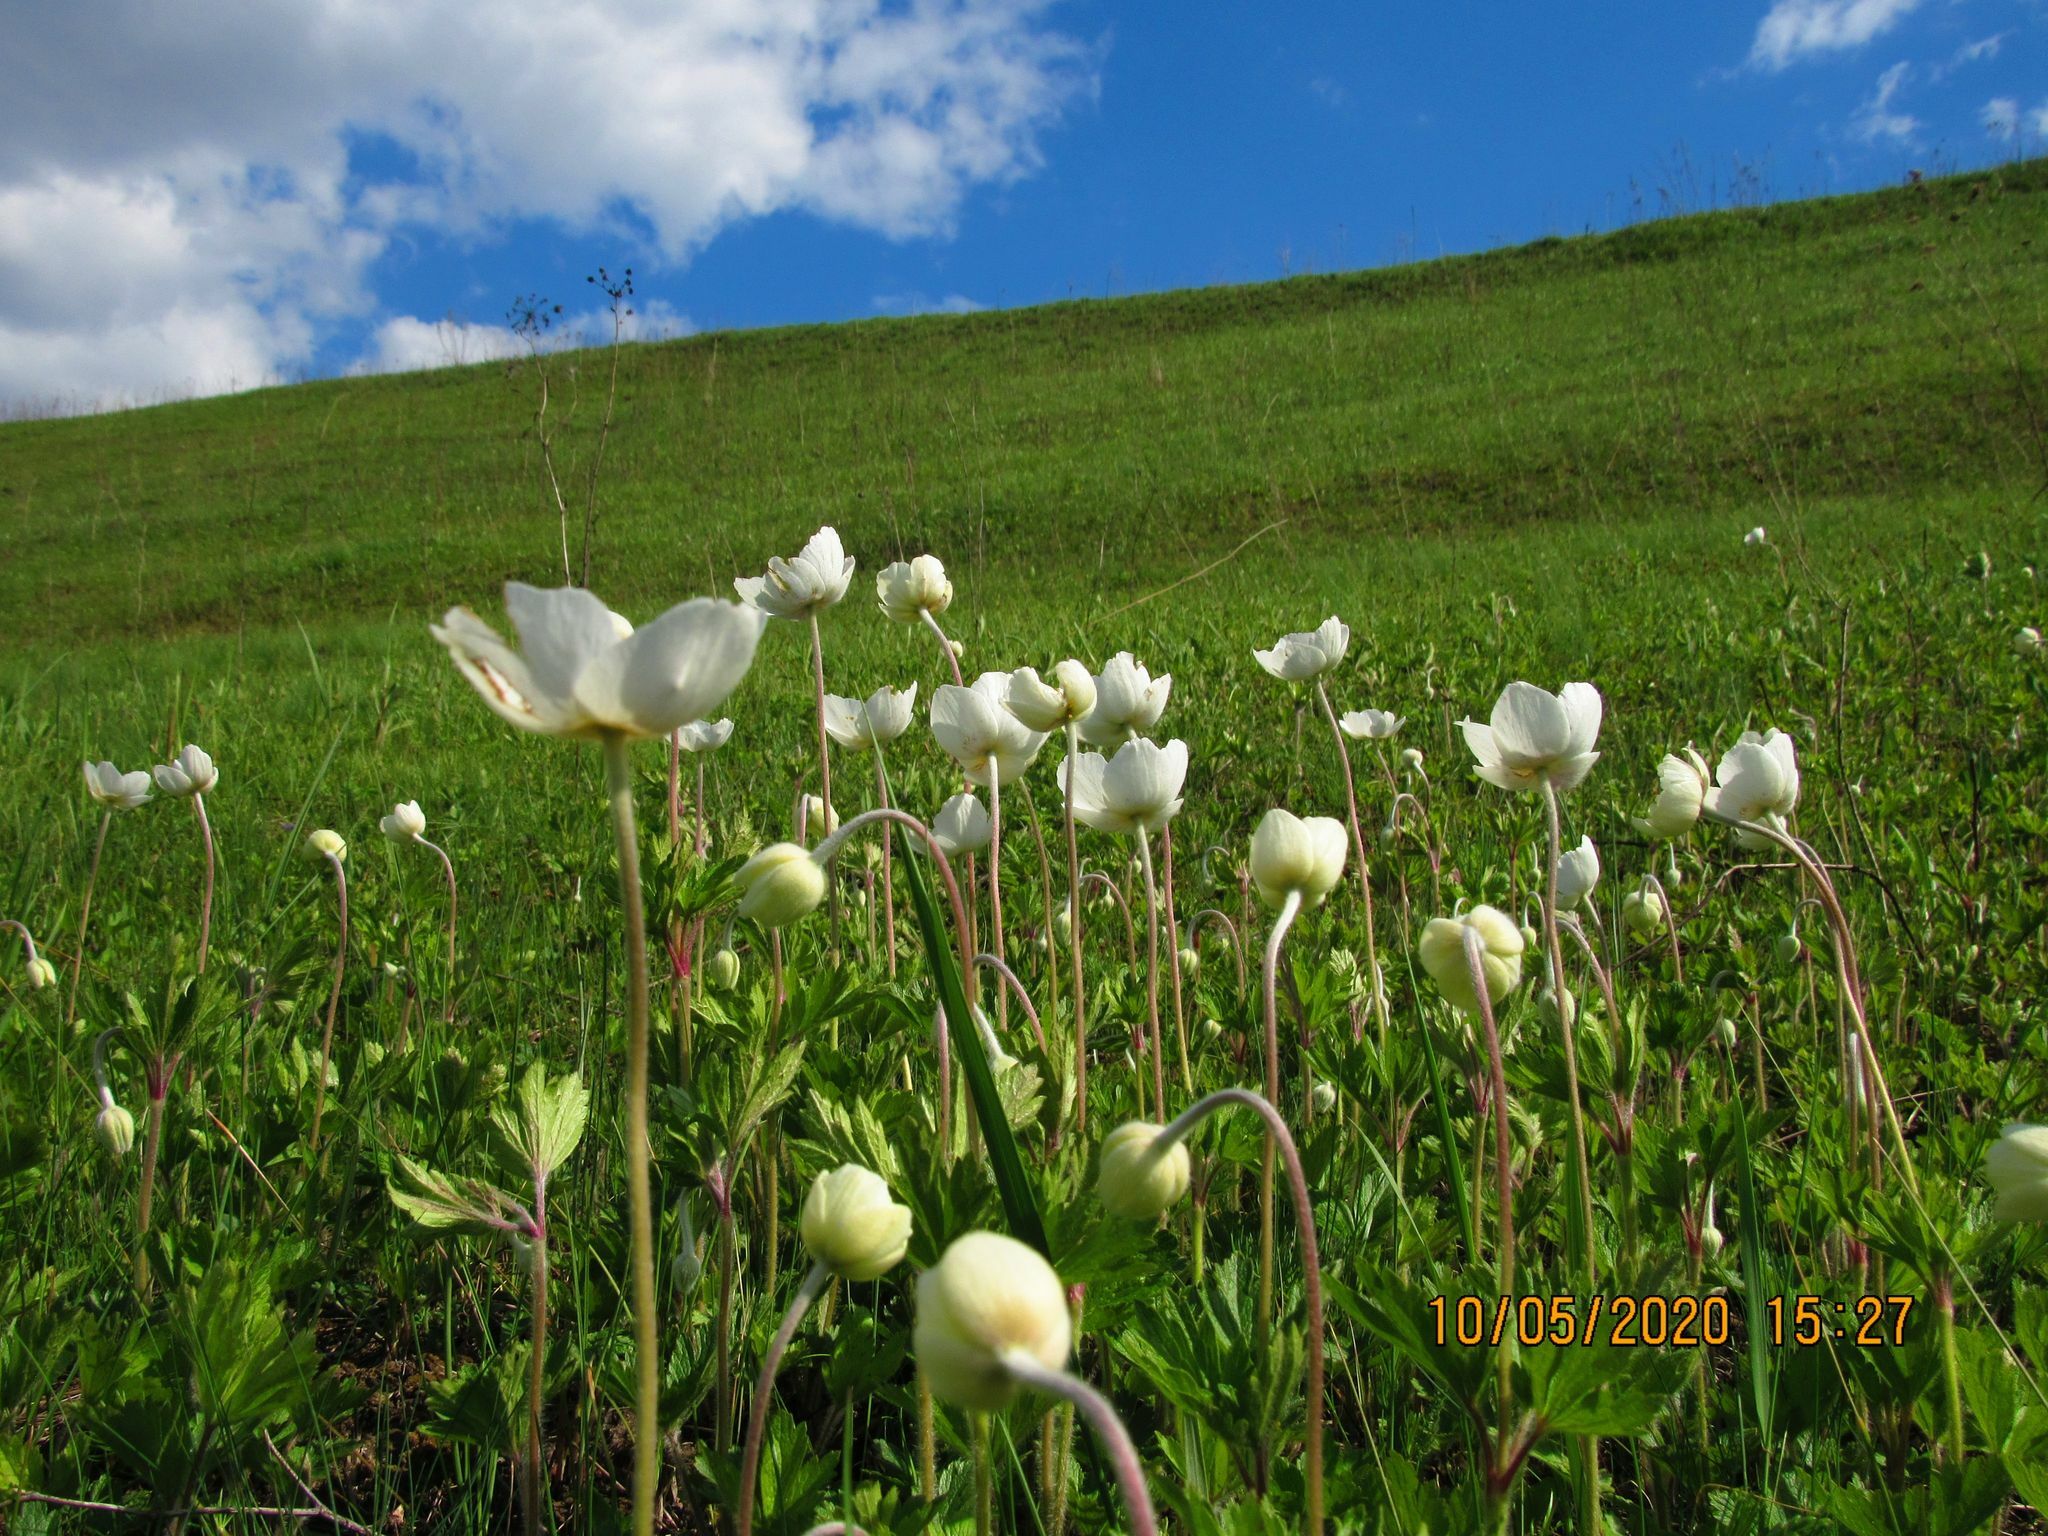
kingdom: Plantae
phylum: Tracheophyta
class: Magnoliopsida
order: Ranunculales
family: Ranunculaceae
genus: Anemone
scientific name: Anemone sylvestris
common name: Snowdrop anemone
